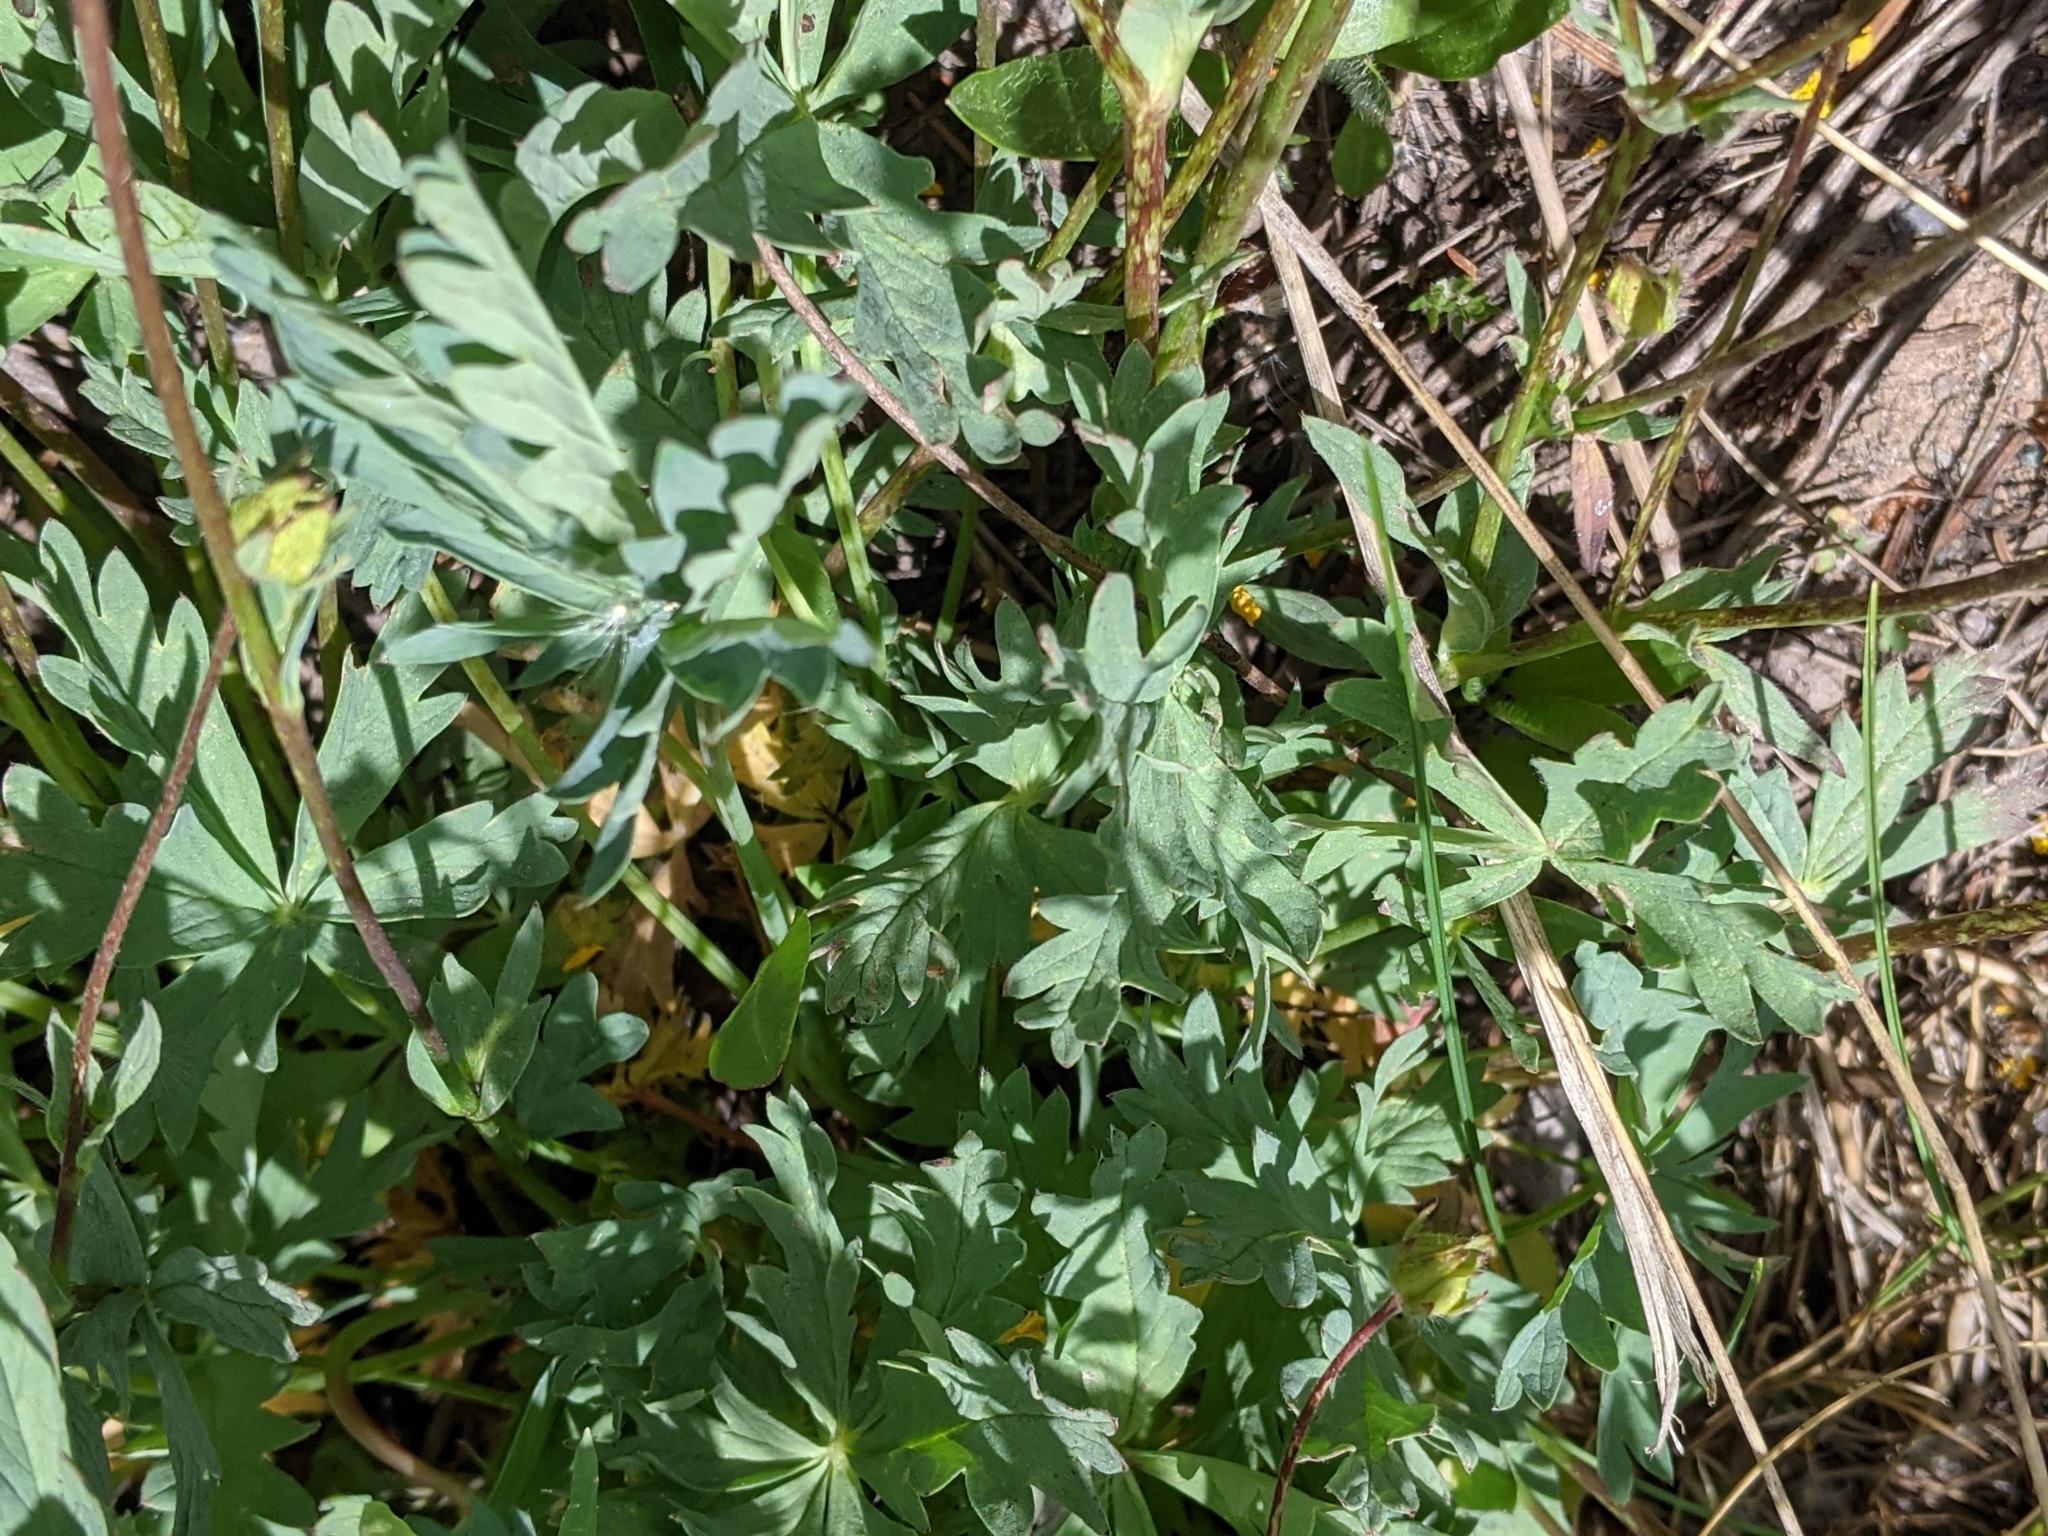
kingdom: Plantae
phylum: Tracheophyta
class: Magnoliopsida
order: Rosales
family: Rosaceae
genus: Potentilla
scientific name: Potentilla glaucophylla
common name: Blue-leaved cinquefoil
